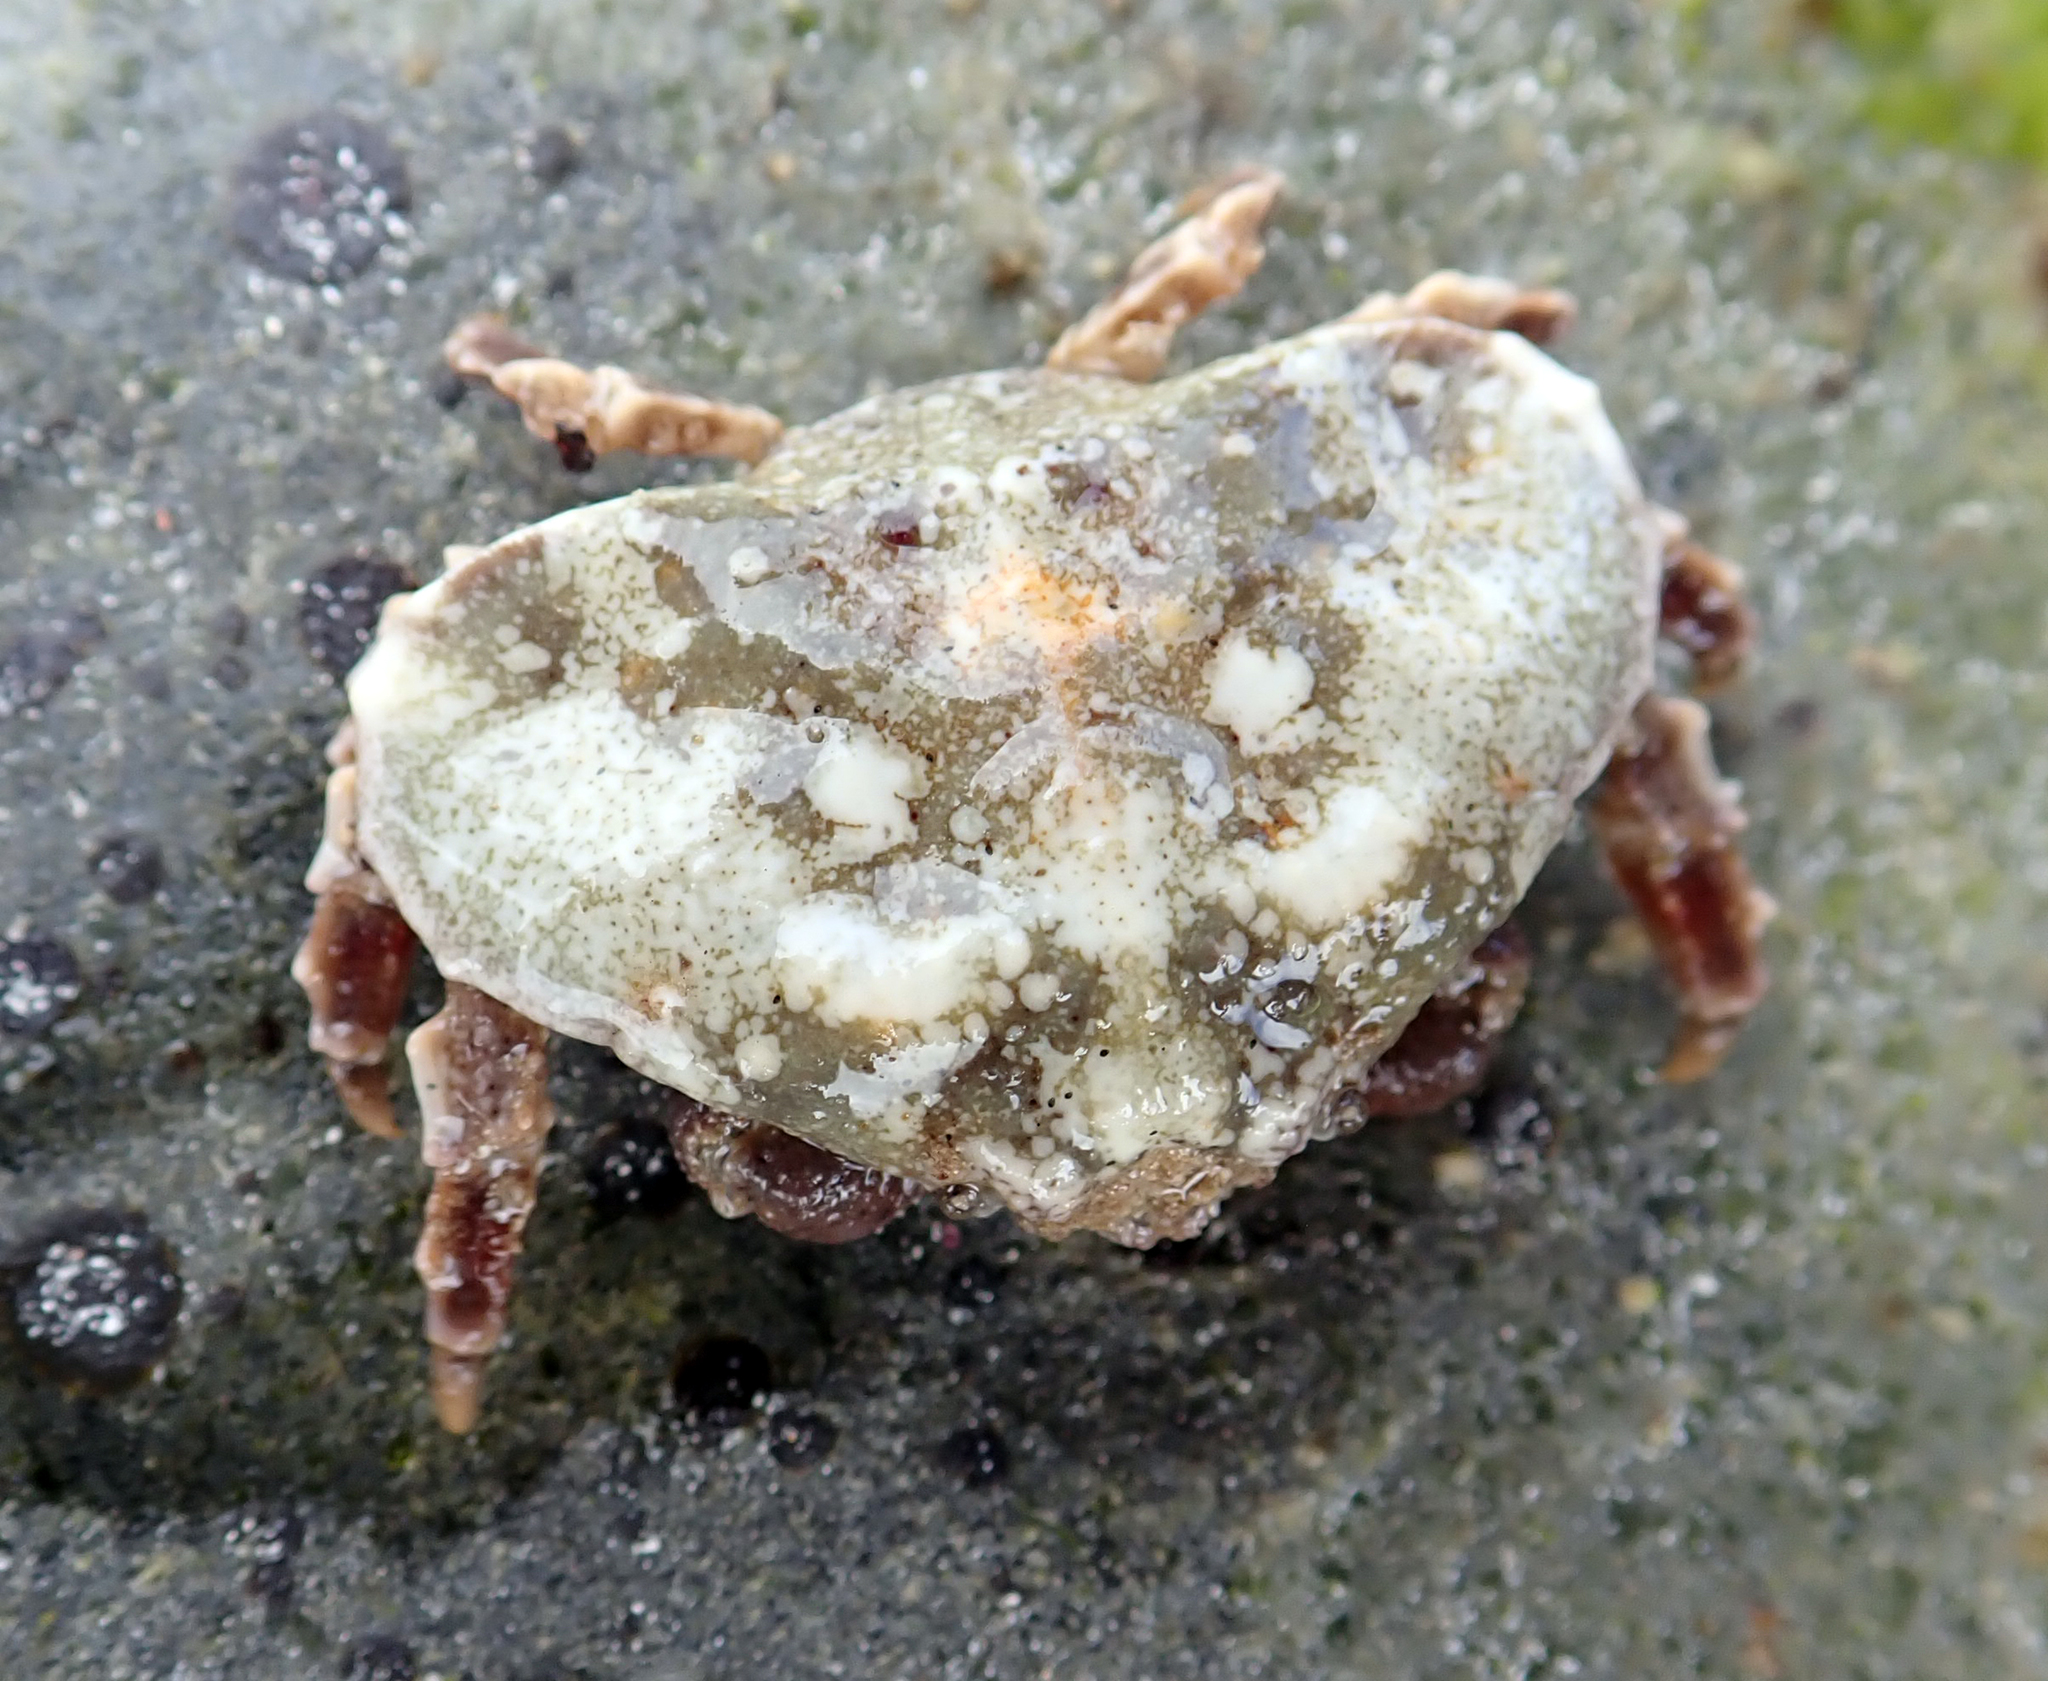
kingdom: Animalia
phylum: Arthropoda
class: Malacostraca
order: Decapoda
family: Majidae
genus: Eurynolambrus
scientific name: Eurynolambrus australis
